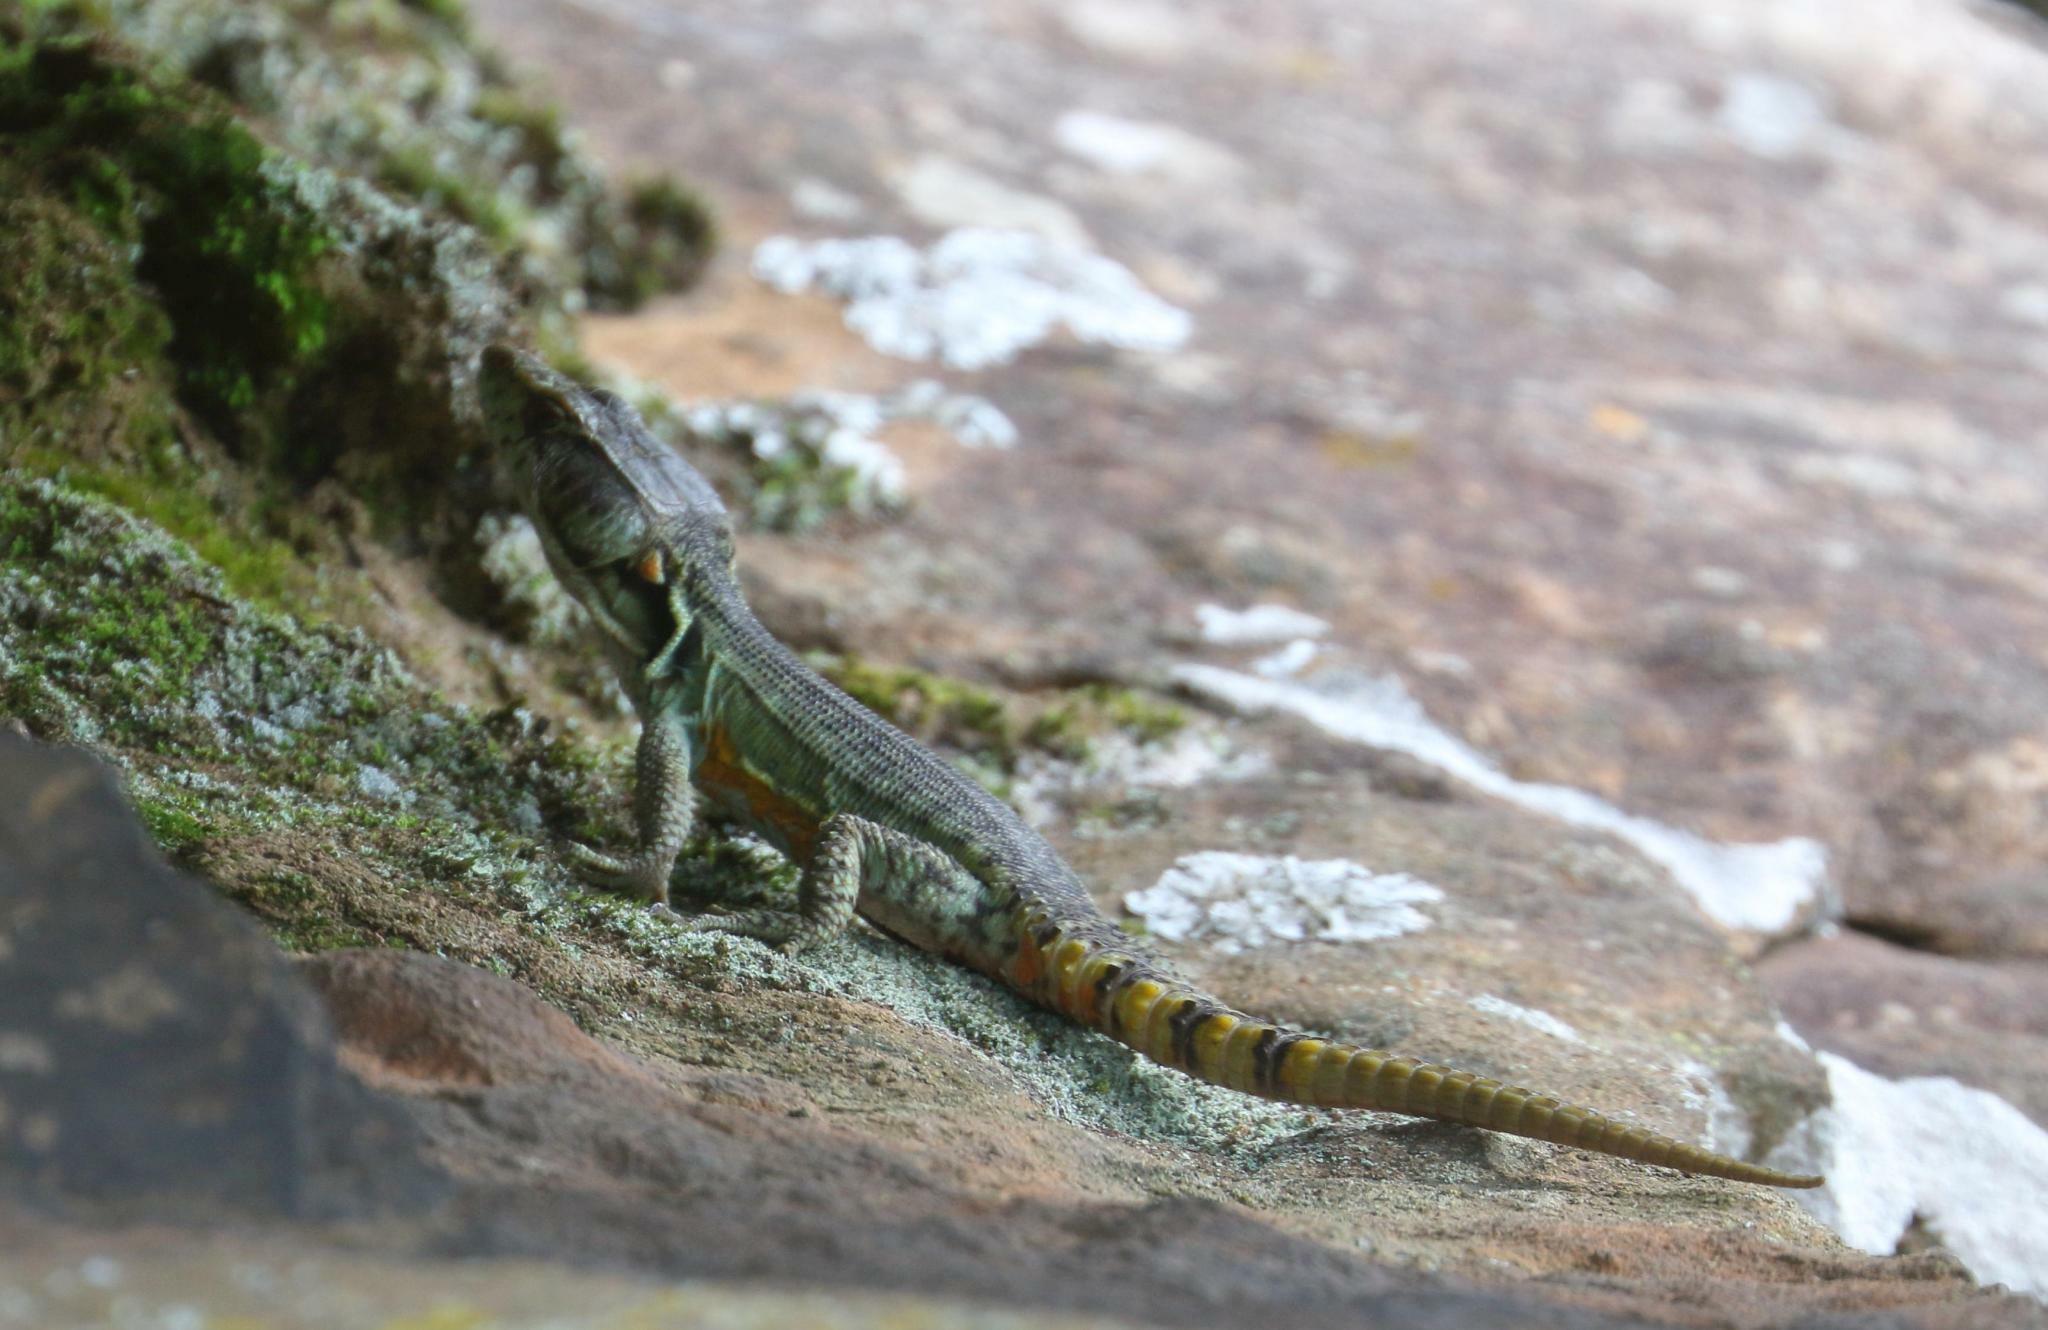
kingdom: Animalia
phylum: Chordata
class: Squamata
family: Cordylidae
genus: Pseudocordylus
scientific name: Pseudocordylus subviridis
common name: Drakensberg crag lizard
